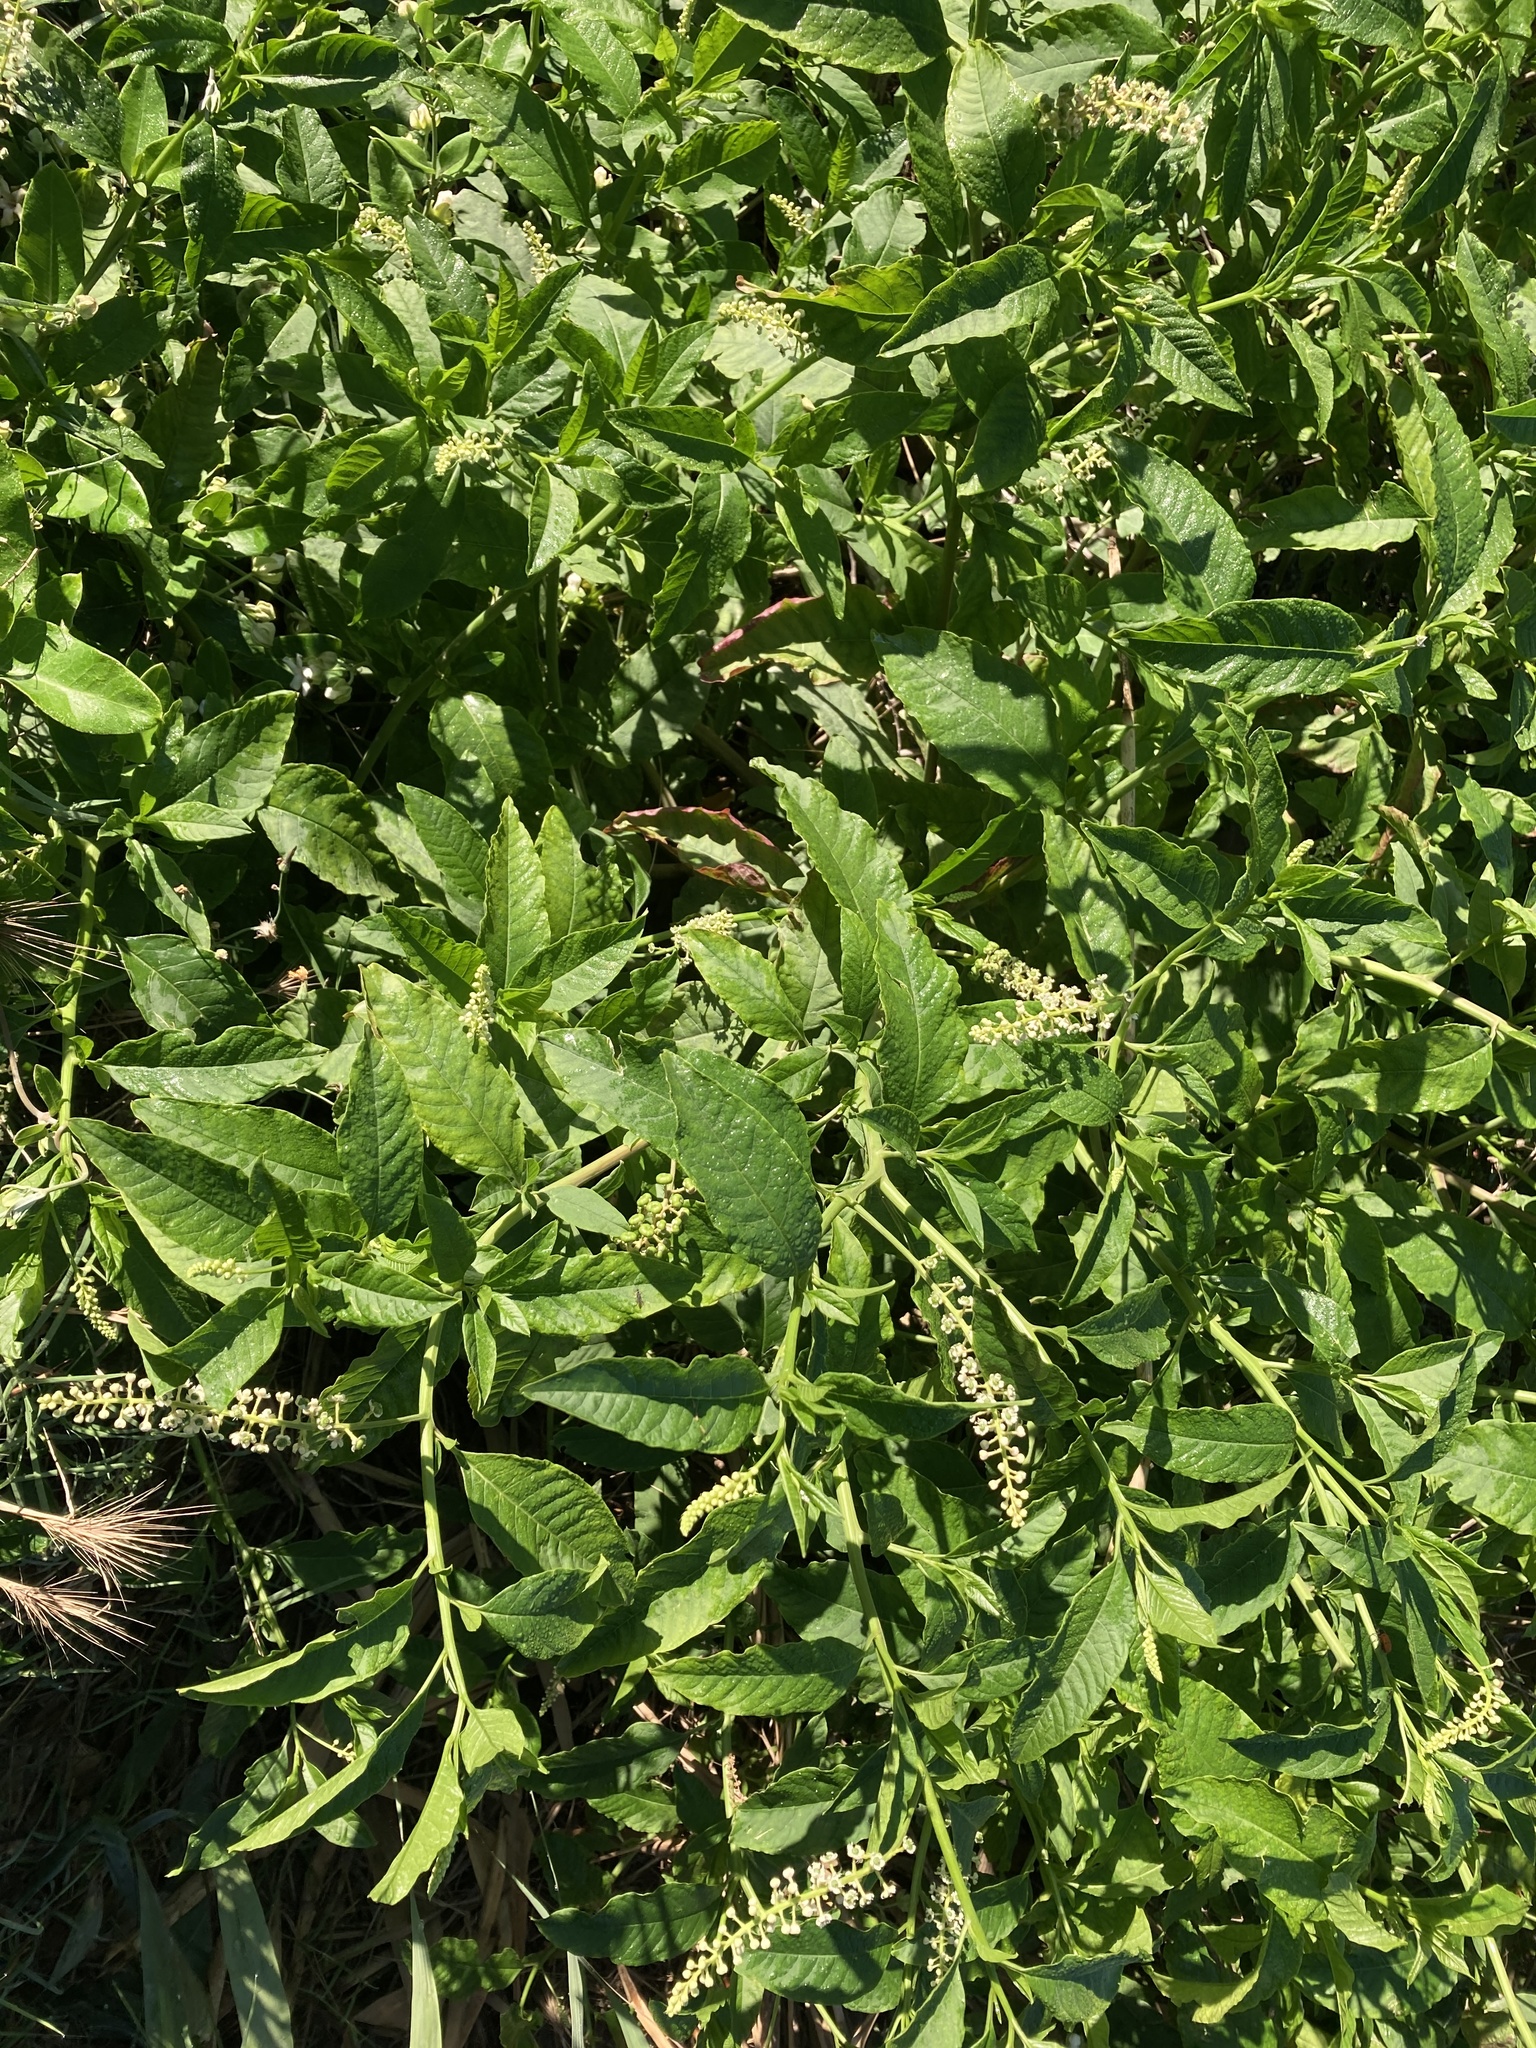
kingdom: Plantae
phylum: Tracheophyta
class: Magnoliopsida
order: Caryophyllales
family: Phytolaccaceae
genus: Phytolacca
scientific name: Phytolacca americana
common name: American pokeweed
